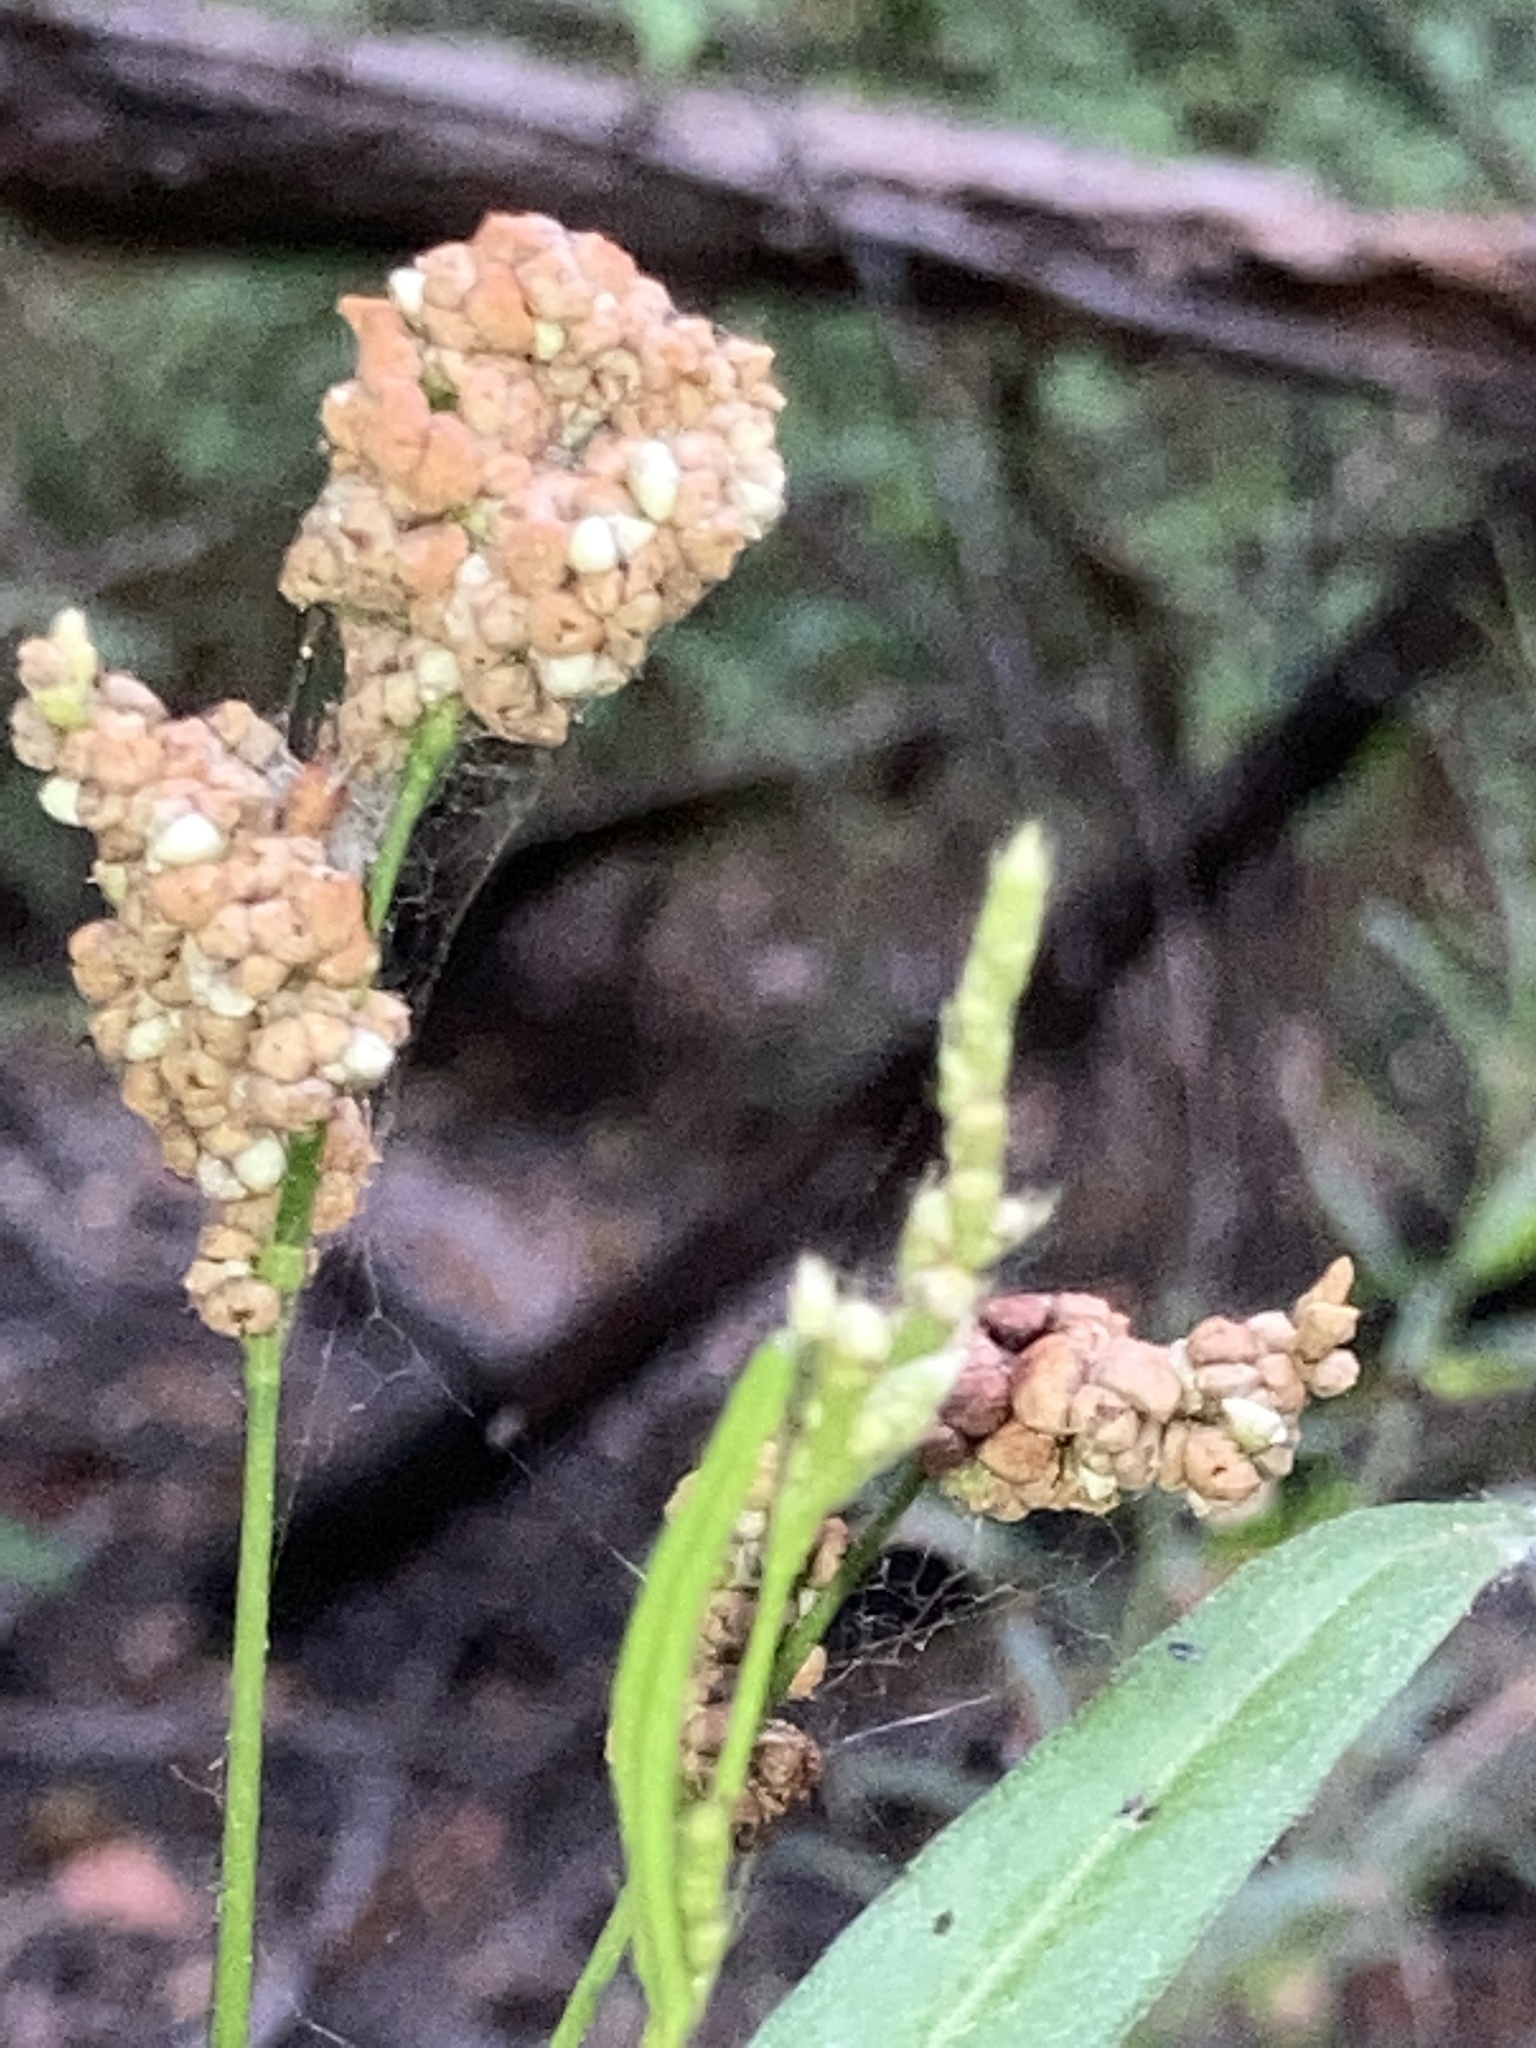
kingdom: Plantae
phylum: Tracheophyta
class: Magnoliopsida
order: Caryophyllales
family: Polygonaceae
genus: Persicaria
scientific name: Persicaria hydropiperoides
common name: Swamp smartweed
